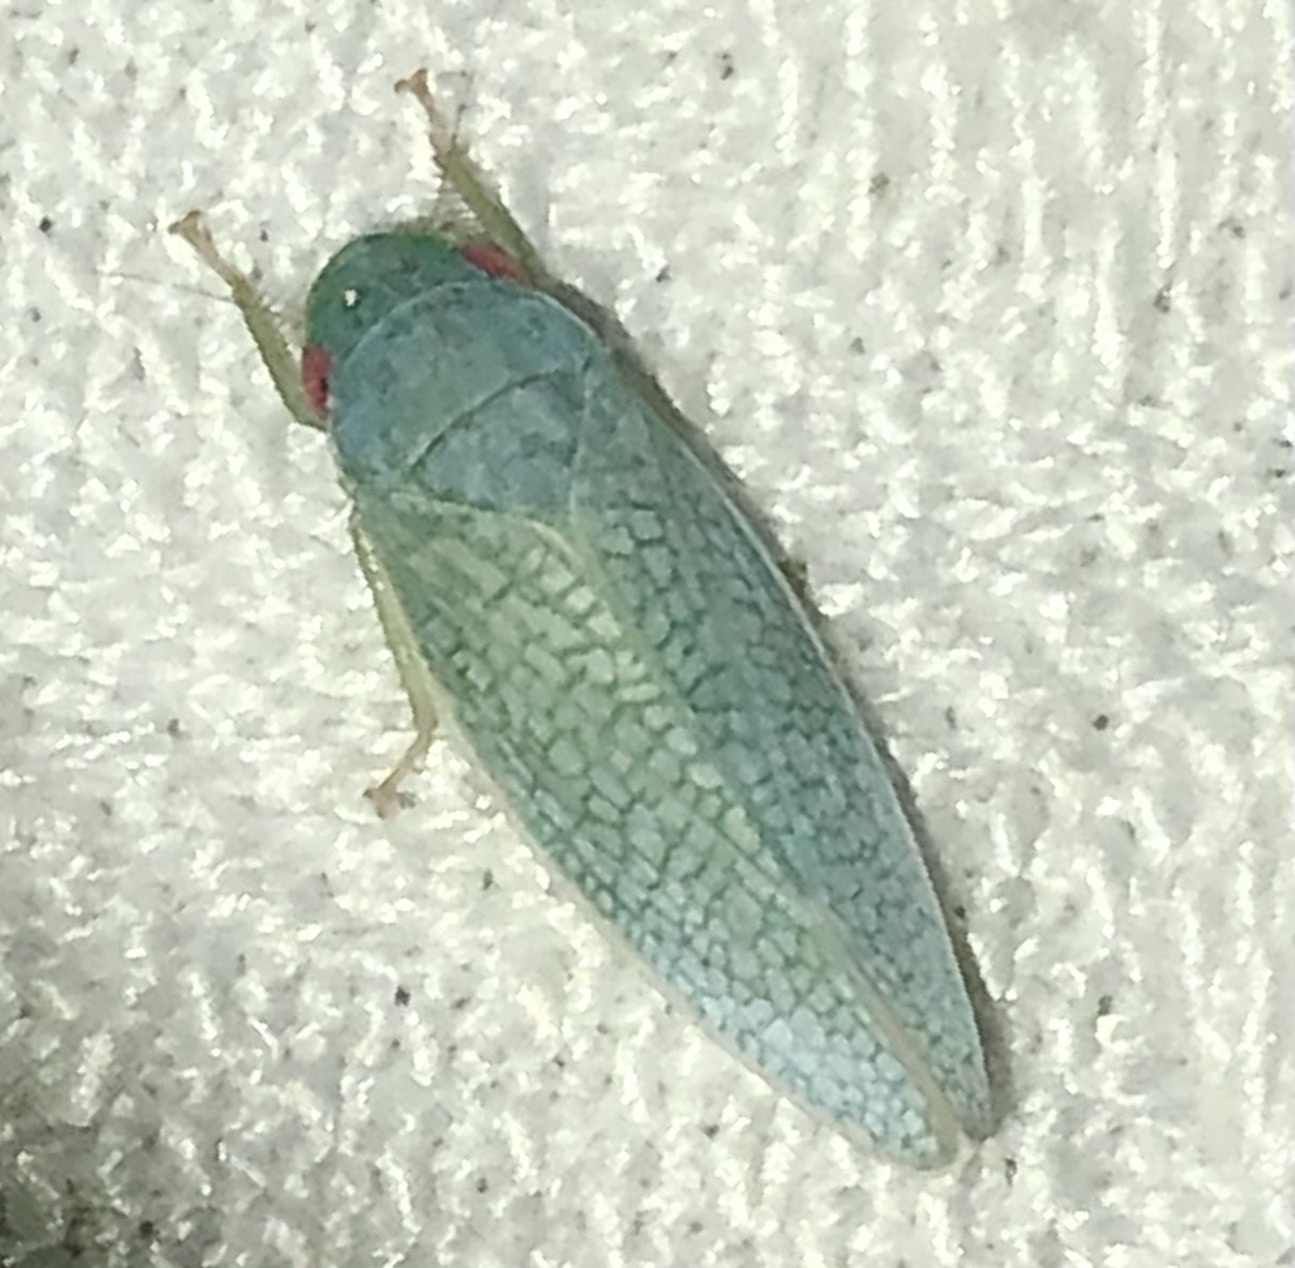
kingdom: Animalia
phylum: Arthropoda
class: Insecta
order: Hemiptera
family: Cicadellidae
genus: Gyponana
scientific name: Gyponana procera
